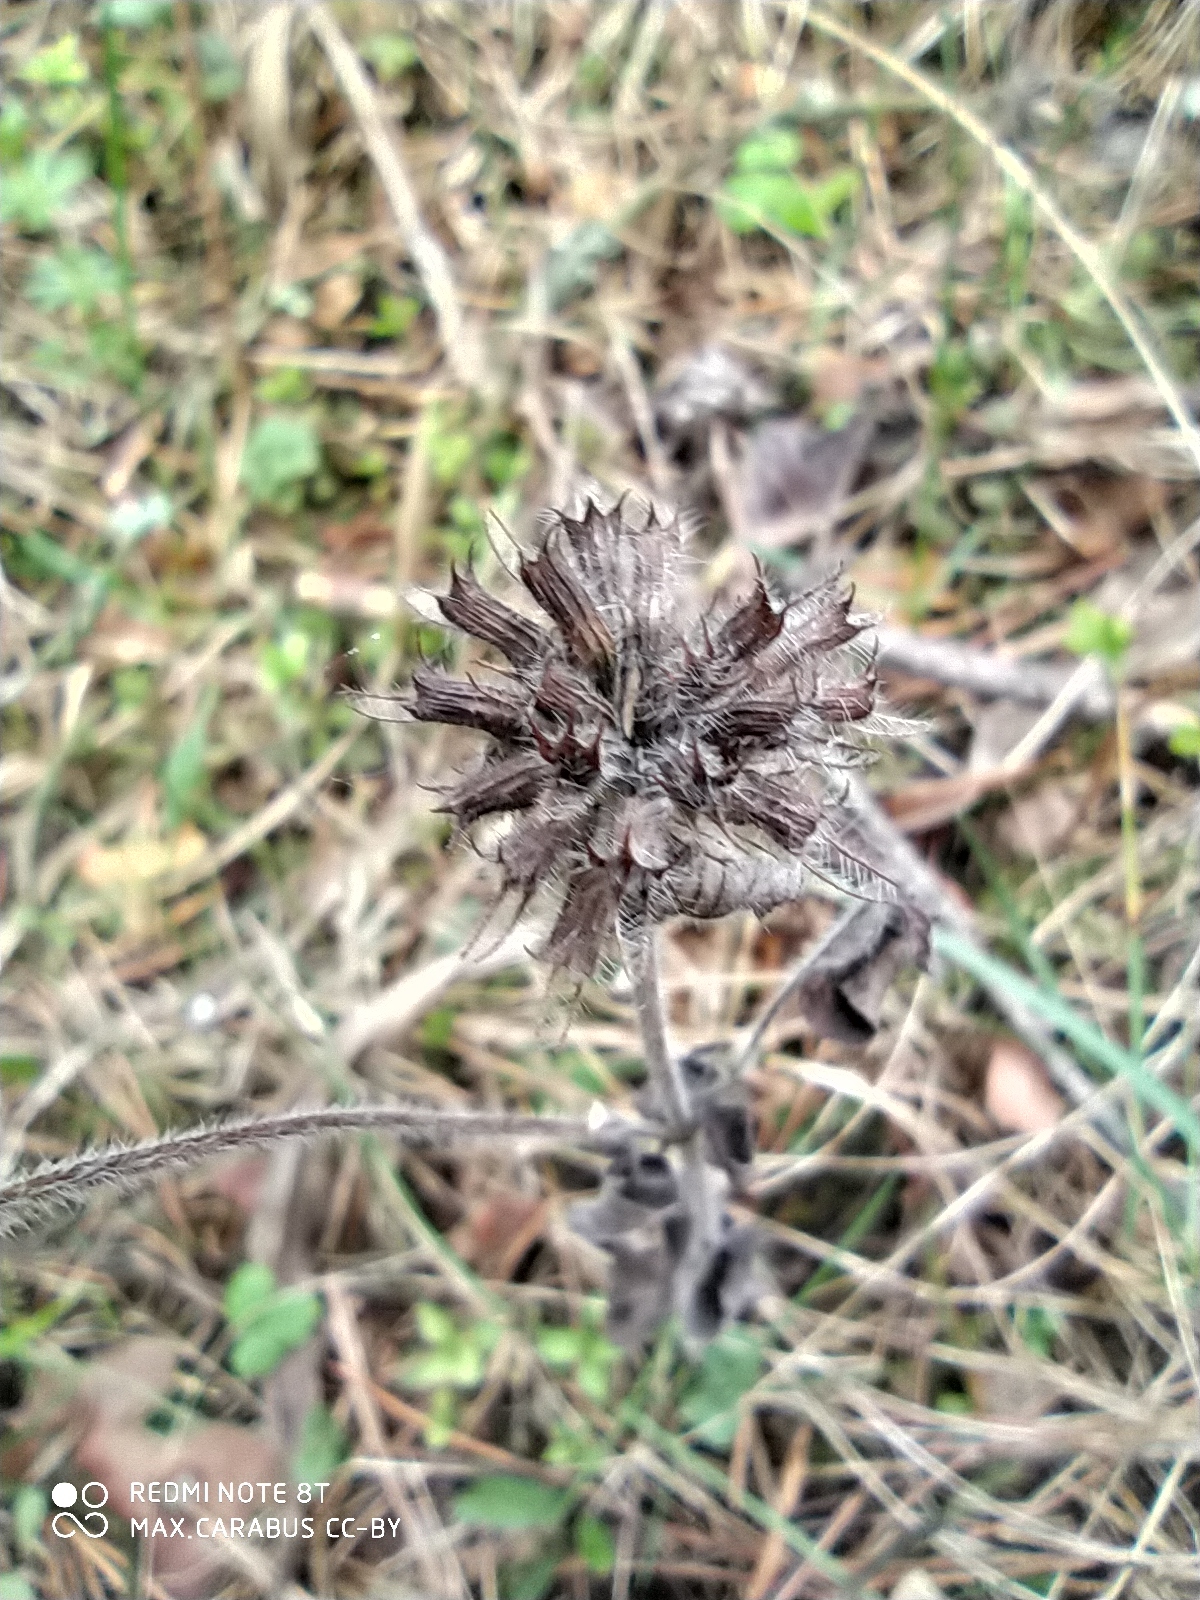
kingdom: Plantae
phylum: Tracheophyta
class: Magnoliopsida
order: Lamiales
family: Lamiaceae
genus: Clinopodium
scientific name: Clinopodium vulgare
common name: Wild basil
